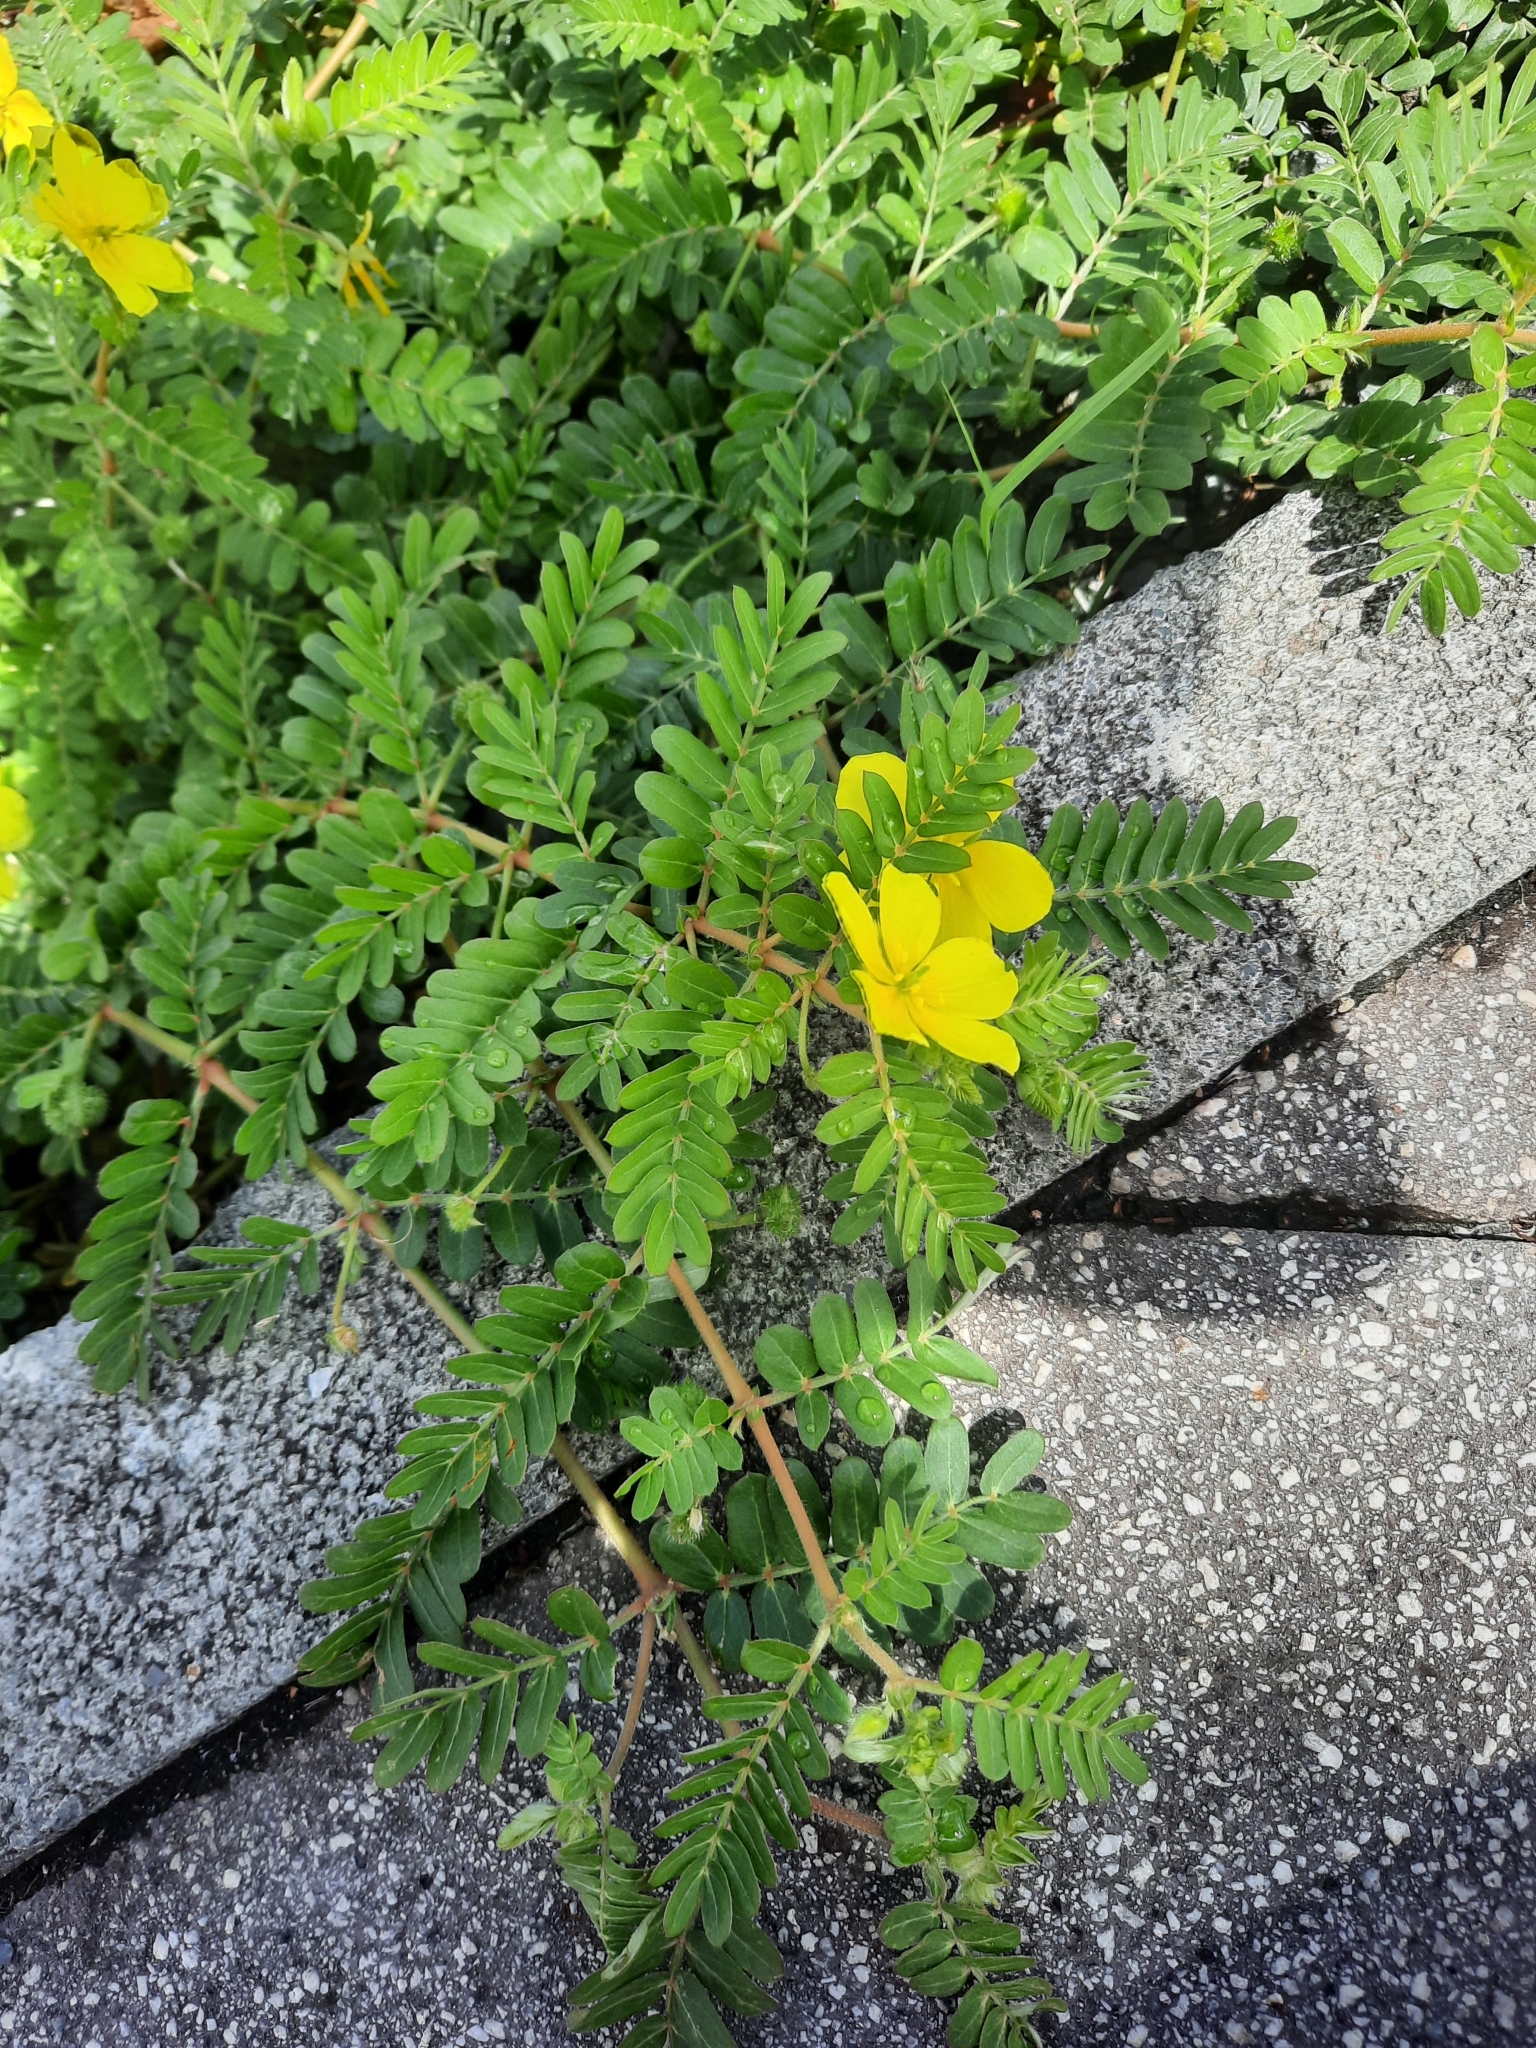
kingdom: Plantae
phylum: Tracheophyta
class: Magnoliopsida
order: Zygophyllales
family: Zygophyllaceae
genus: Tribulus
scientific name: Tribulus cistoides
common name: Jamaican feverplant
